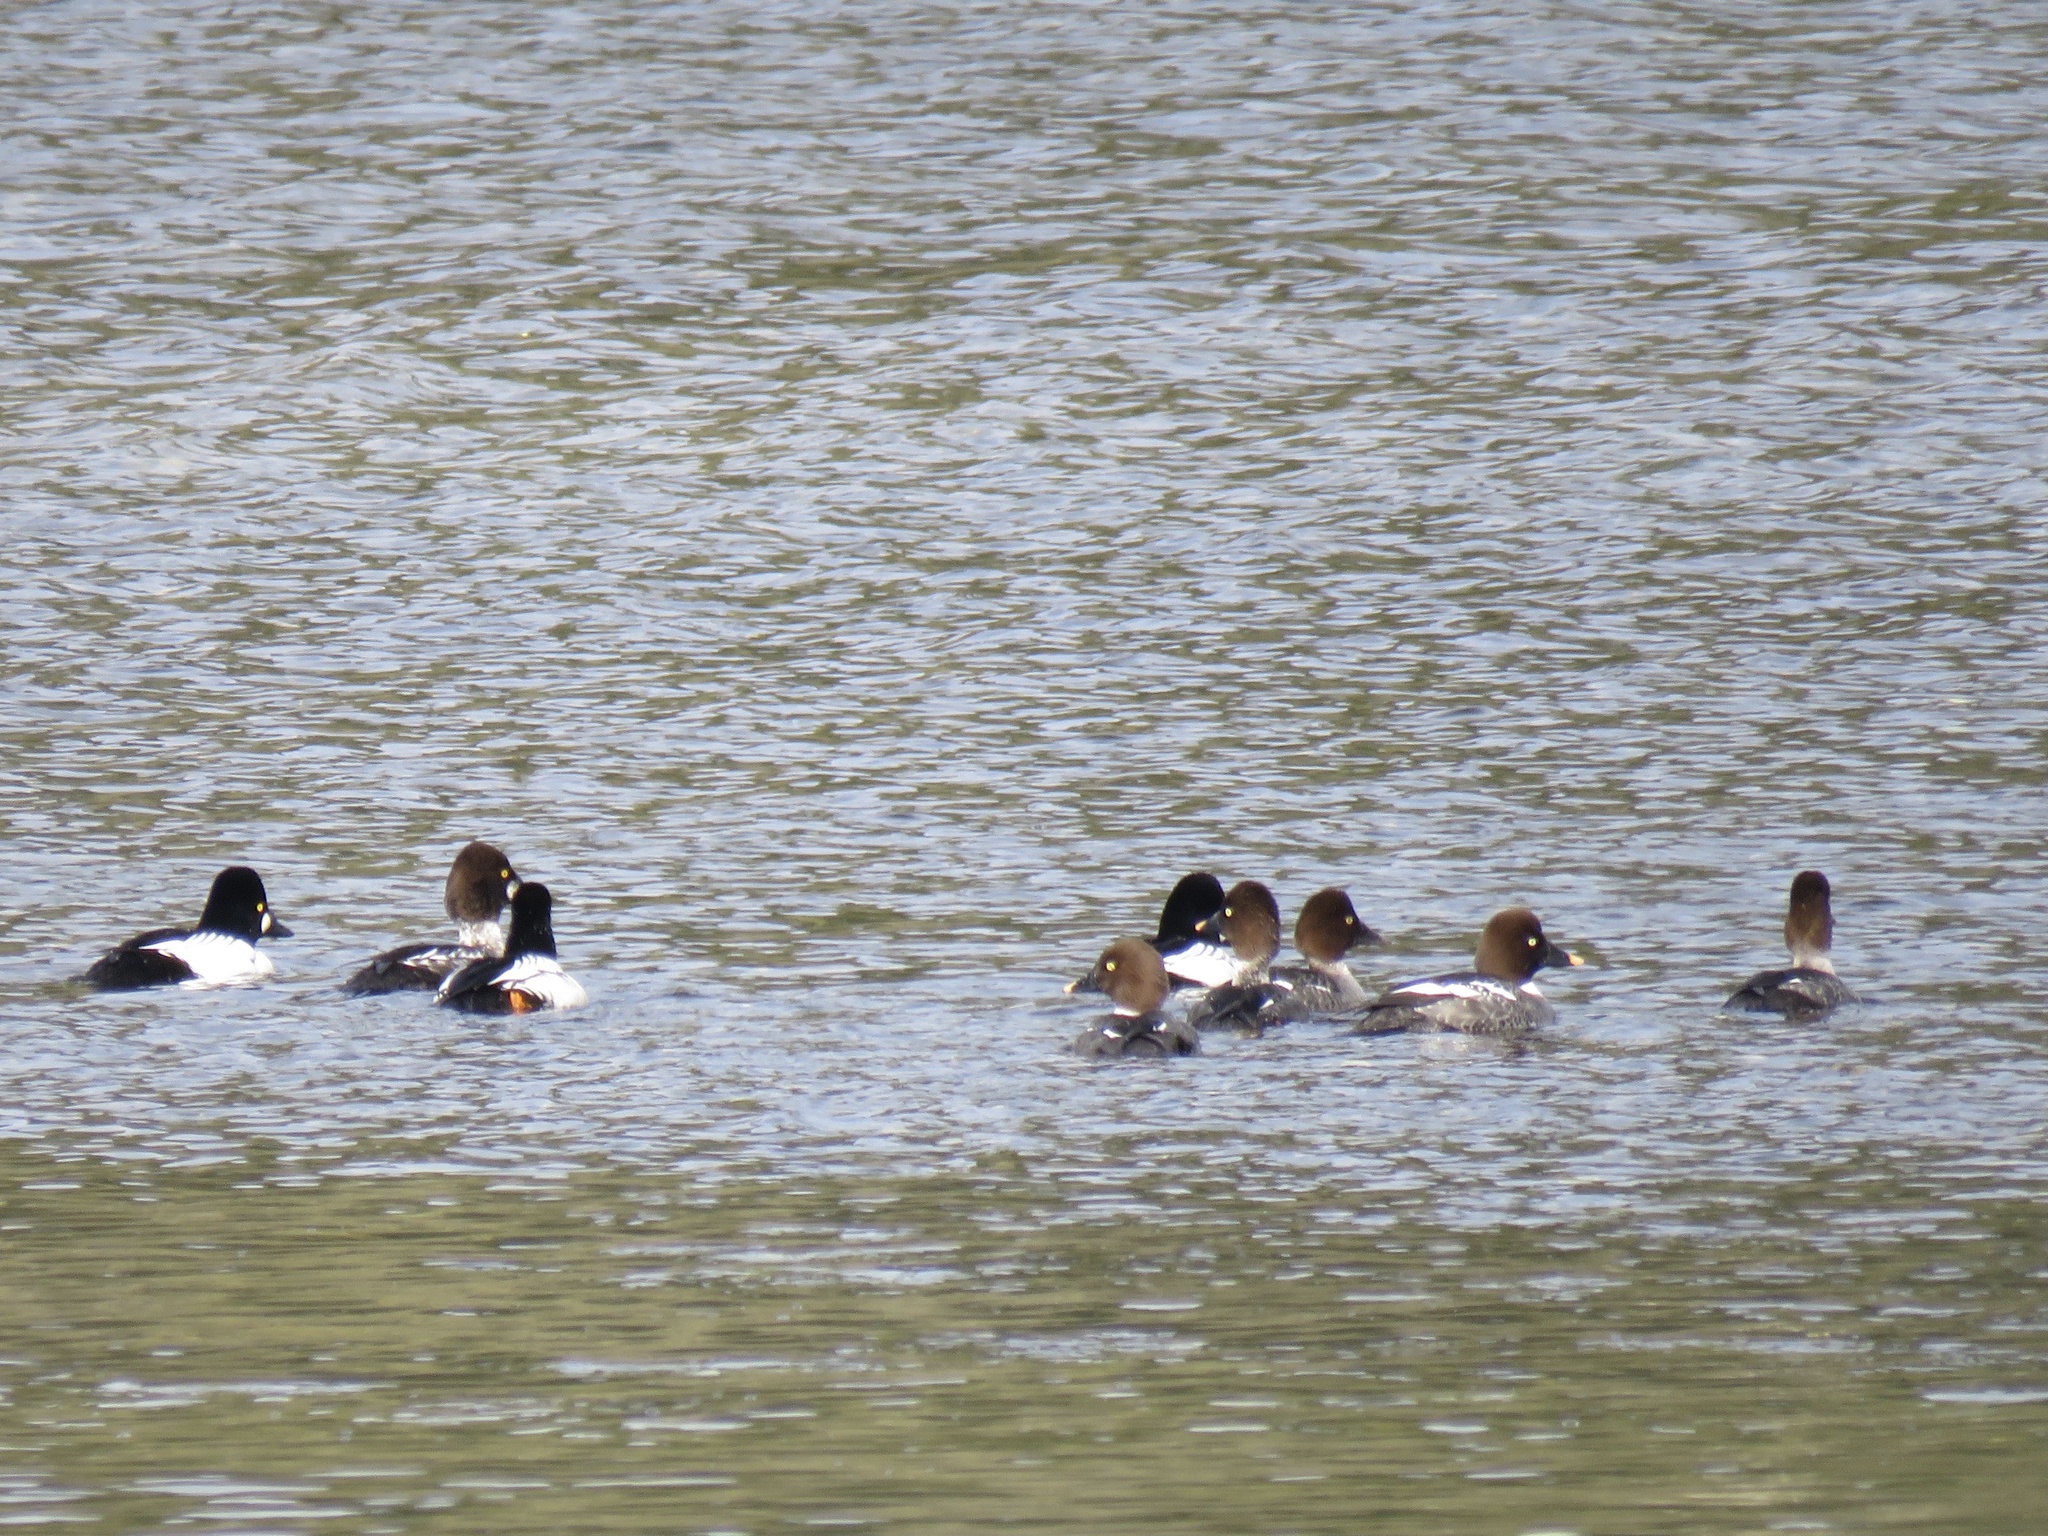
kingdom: Animalia
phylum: Chordata
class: Aves
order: Anseriformes
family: Anatidae
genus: Bucephala
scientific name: Bucephala clangula
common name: Common goldeneye
